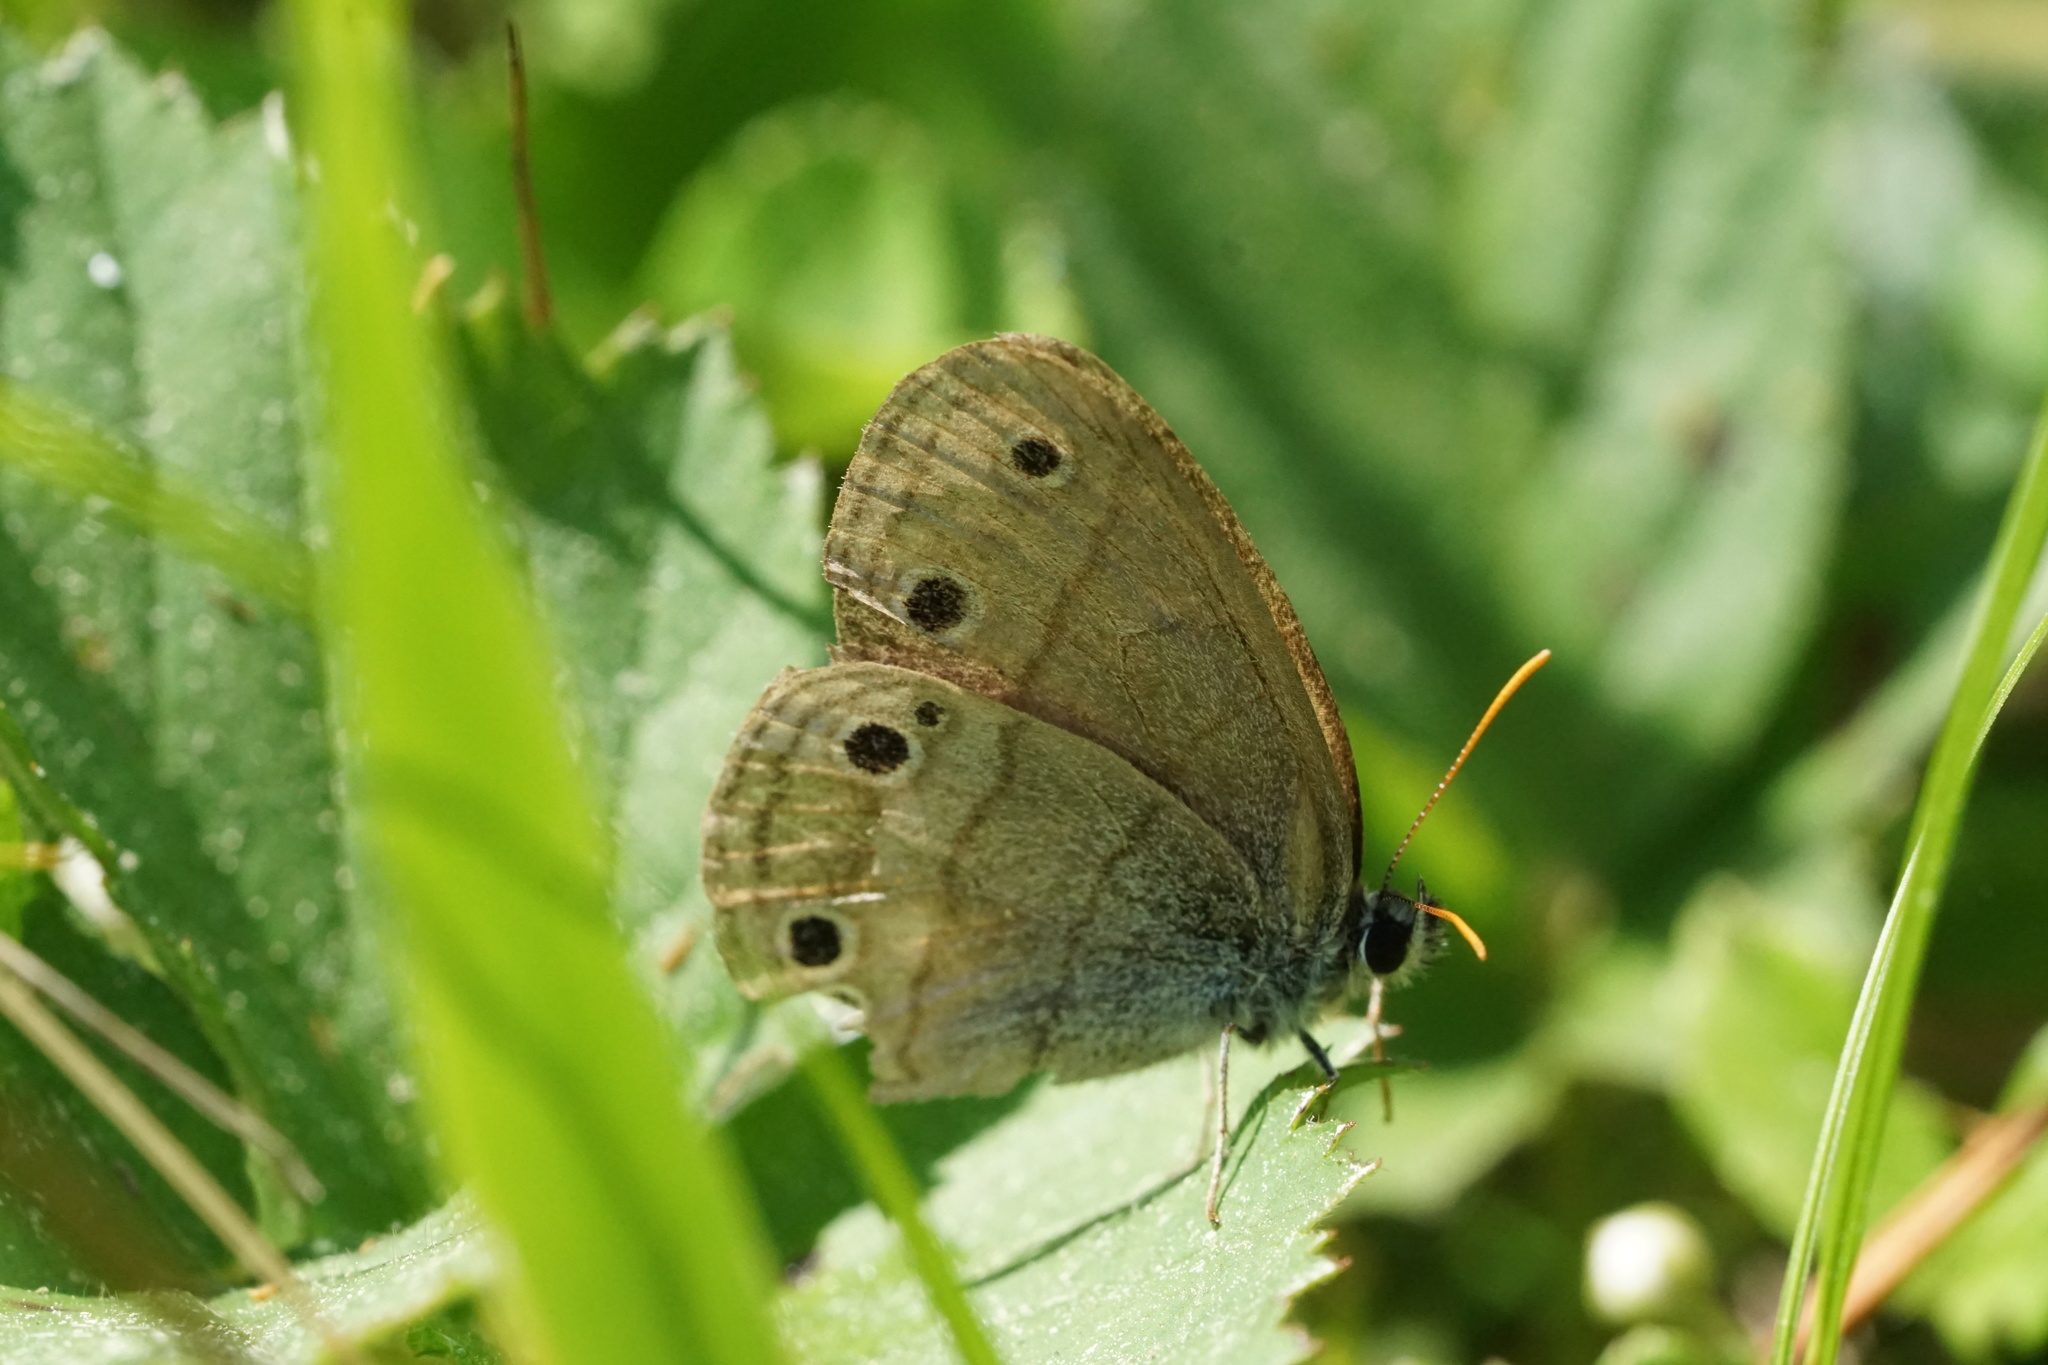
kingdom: Animalia
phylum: Arthropoda
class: Insecta
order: Lepidoptera
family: Nymphalidae
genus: Euptychia
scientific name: Euptychia cymela
